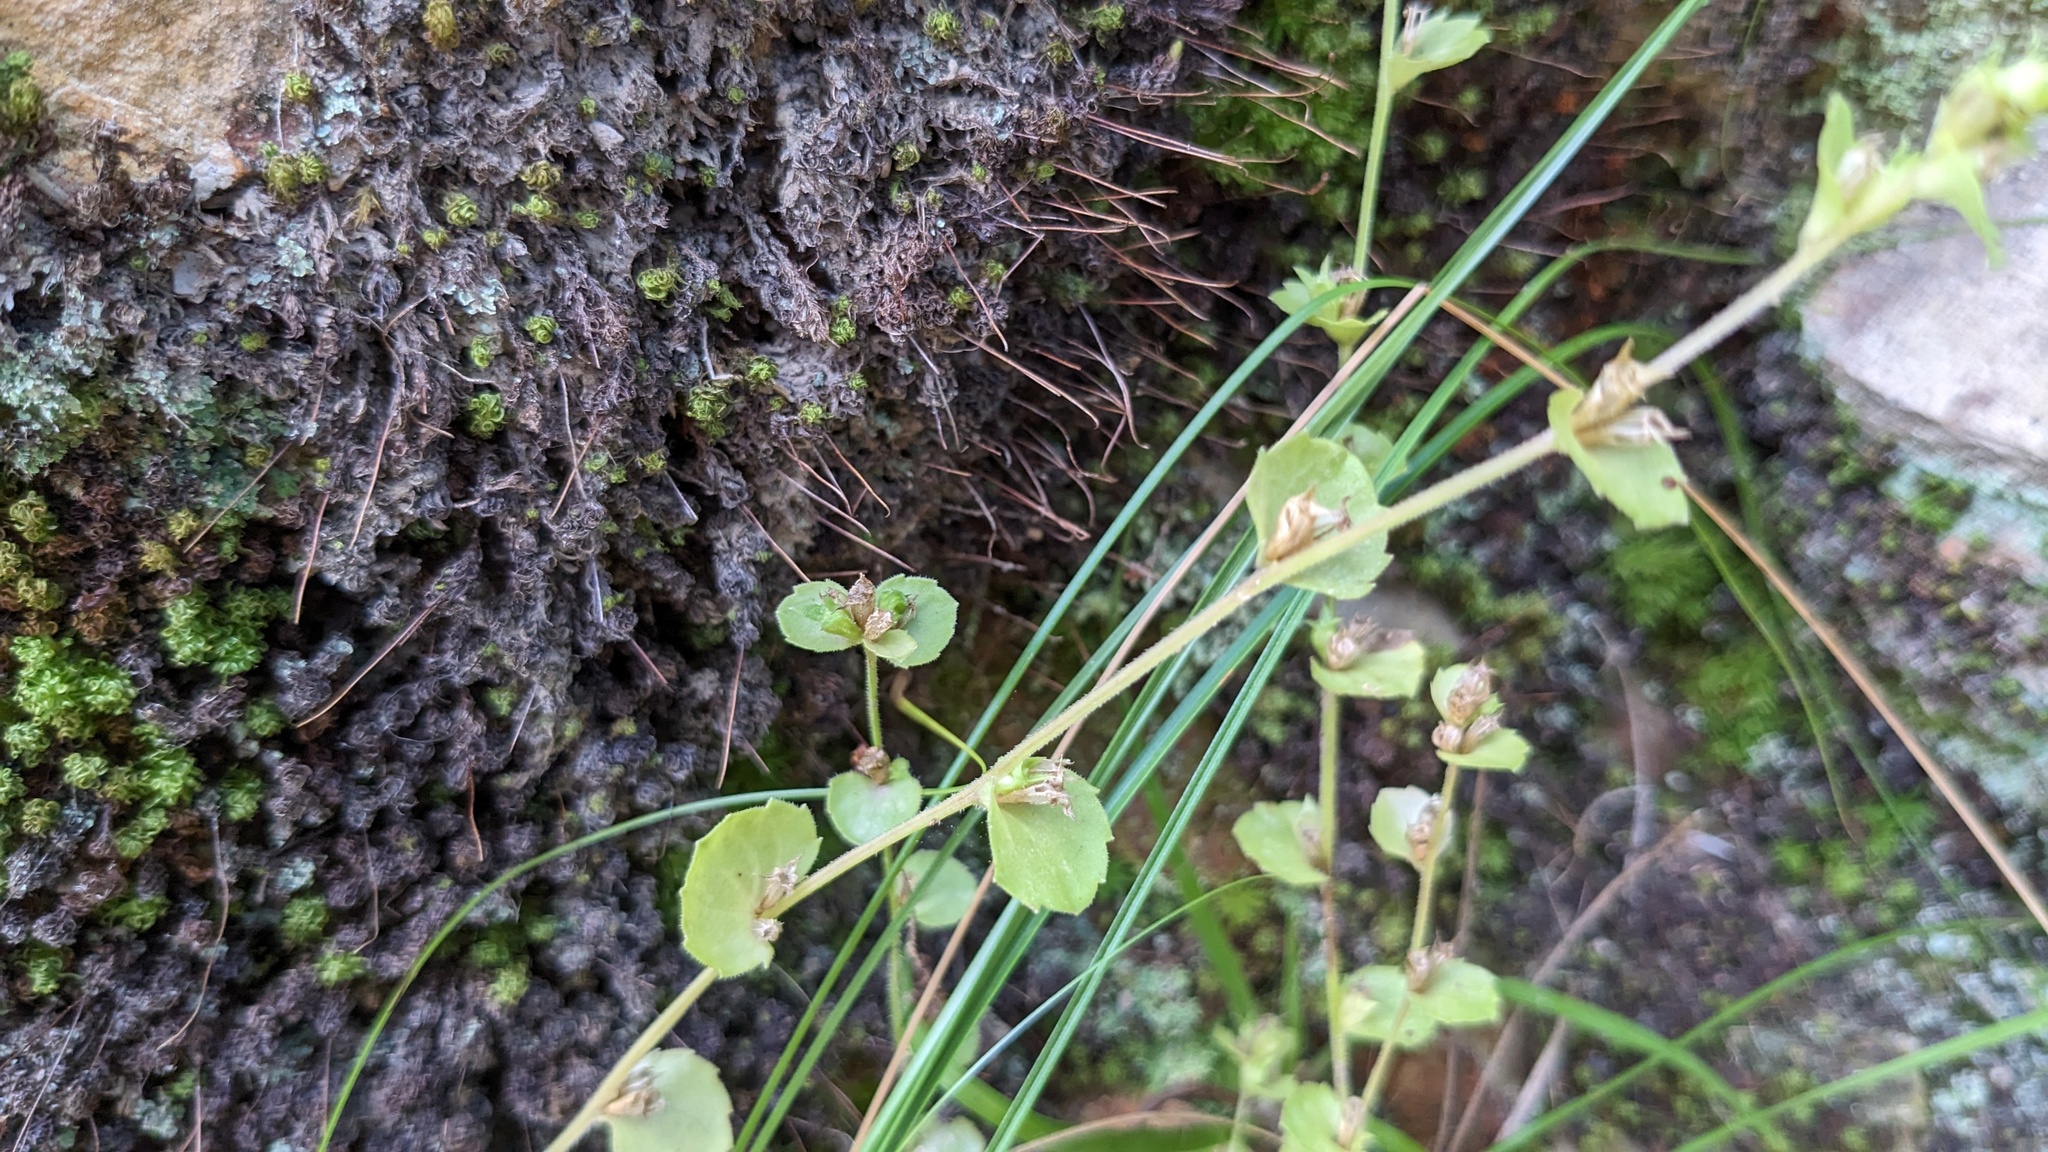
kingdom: Plantae
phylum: Tracheophyta
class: Magnoliopsida
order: Asterales
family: Campanulaceae
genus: Triodanis
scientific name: Triodanis perfoliata
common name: Clasping venus' looking-glass
